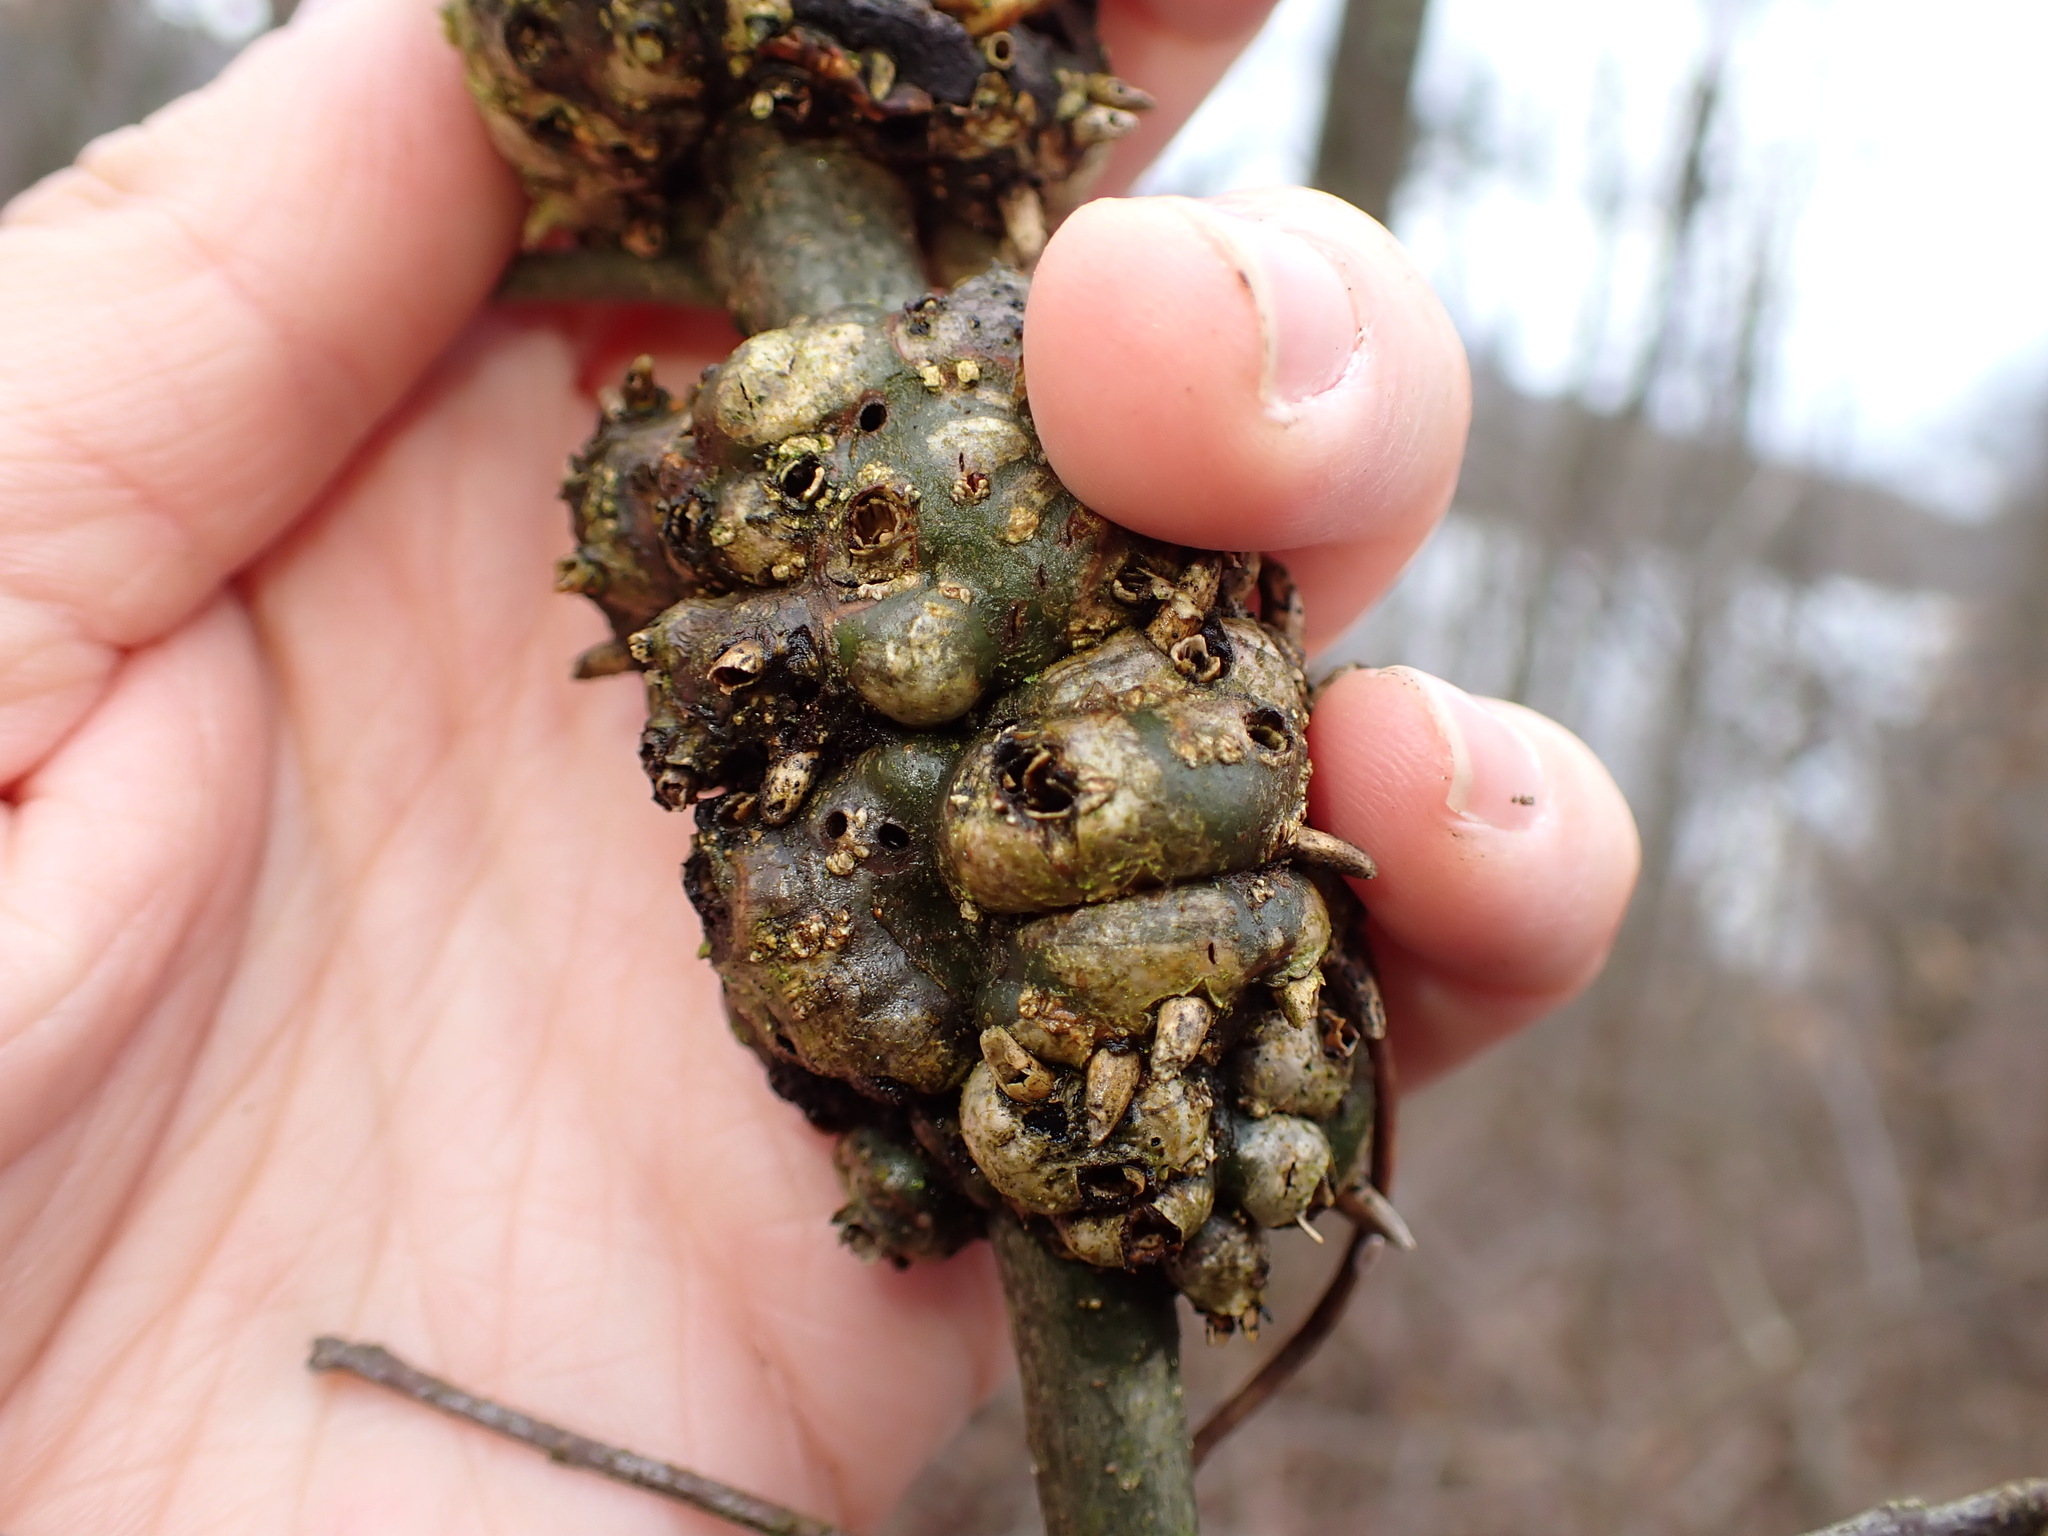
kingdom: Animalia
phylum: Arthropoda
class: Insecta
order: Hymenoptera
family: Cynipidae
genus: Callirhytis
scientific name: Callirhytis
